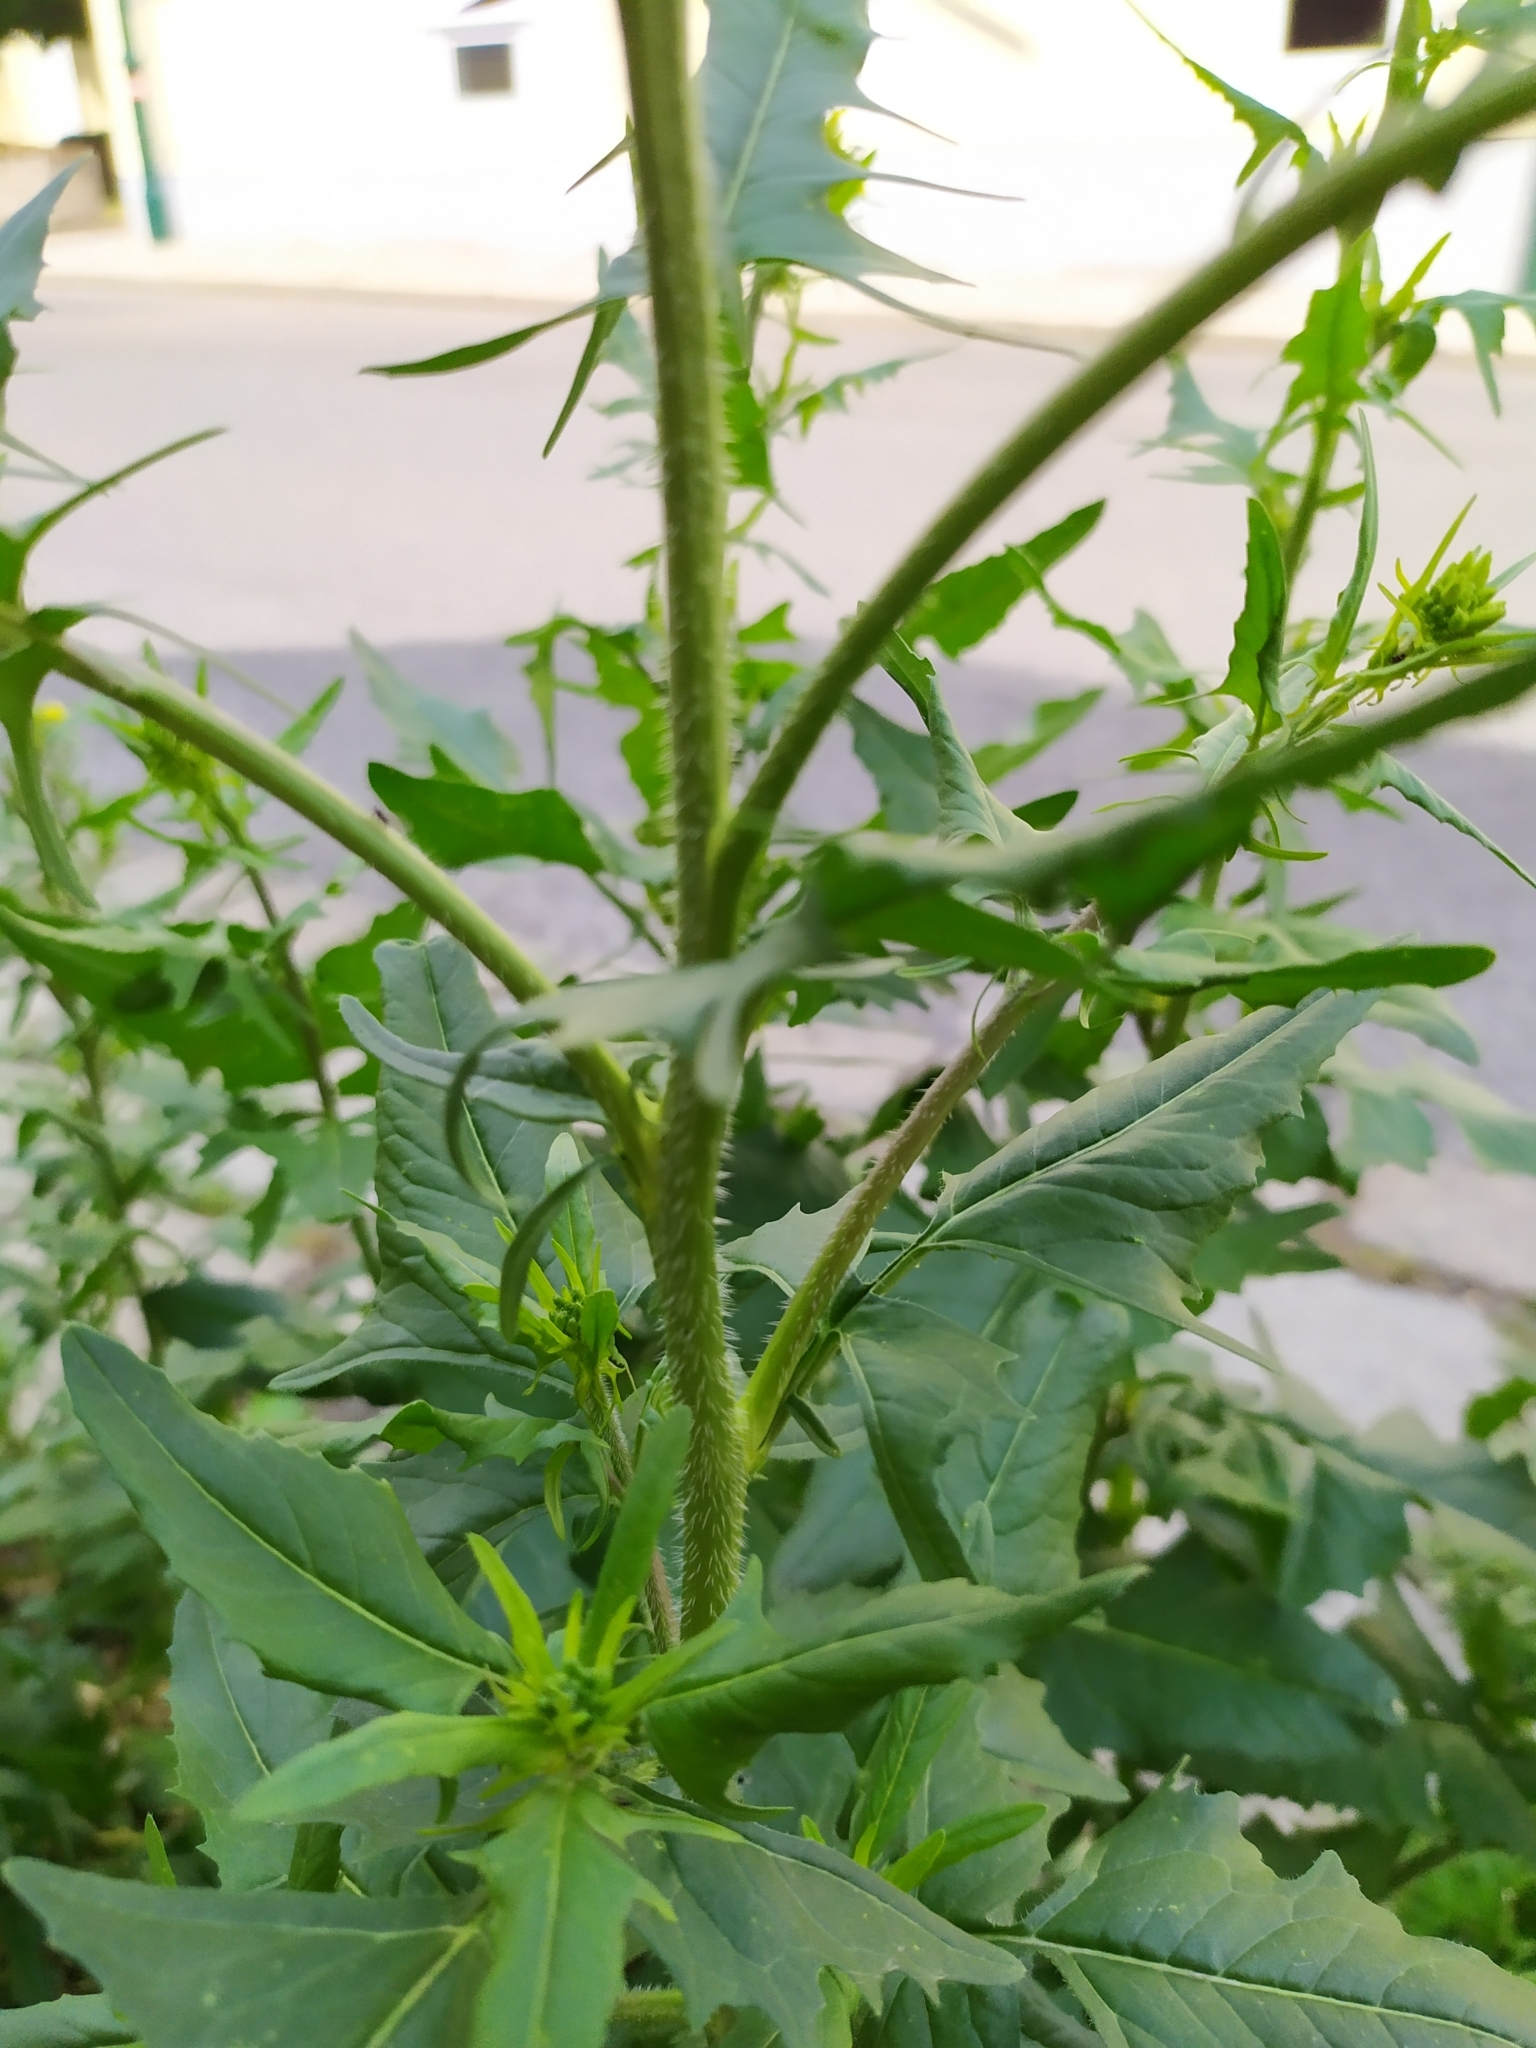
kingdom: Plantae
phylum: Tracheophyta
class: Magnoliopsida
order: Brassicales
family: Brassicaceae
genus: Sisymbrium
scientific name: Sisymbrium loeselii
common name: False london-rocket
